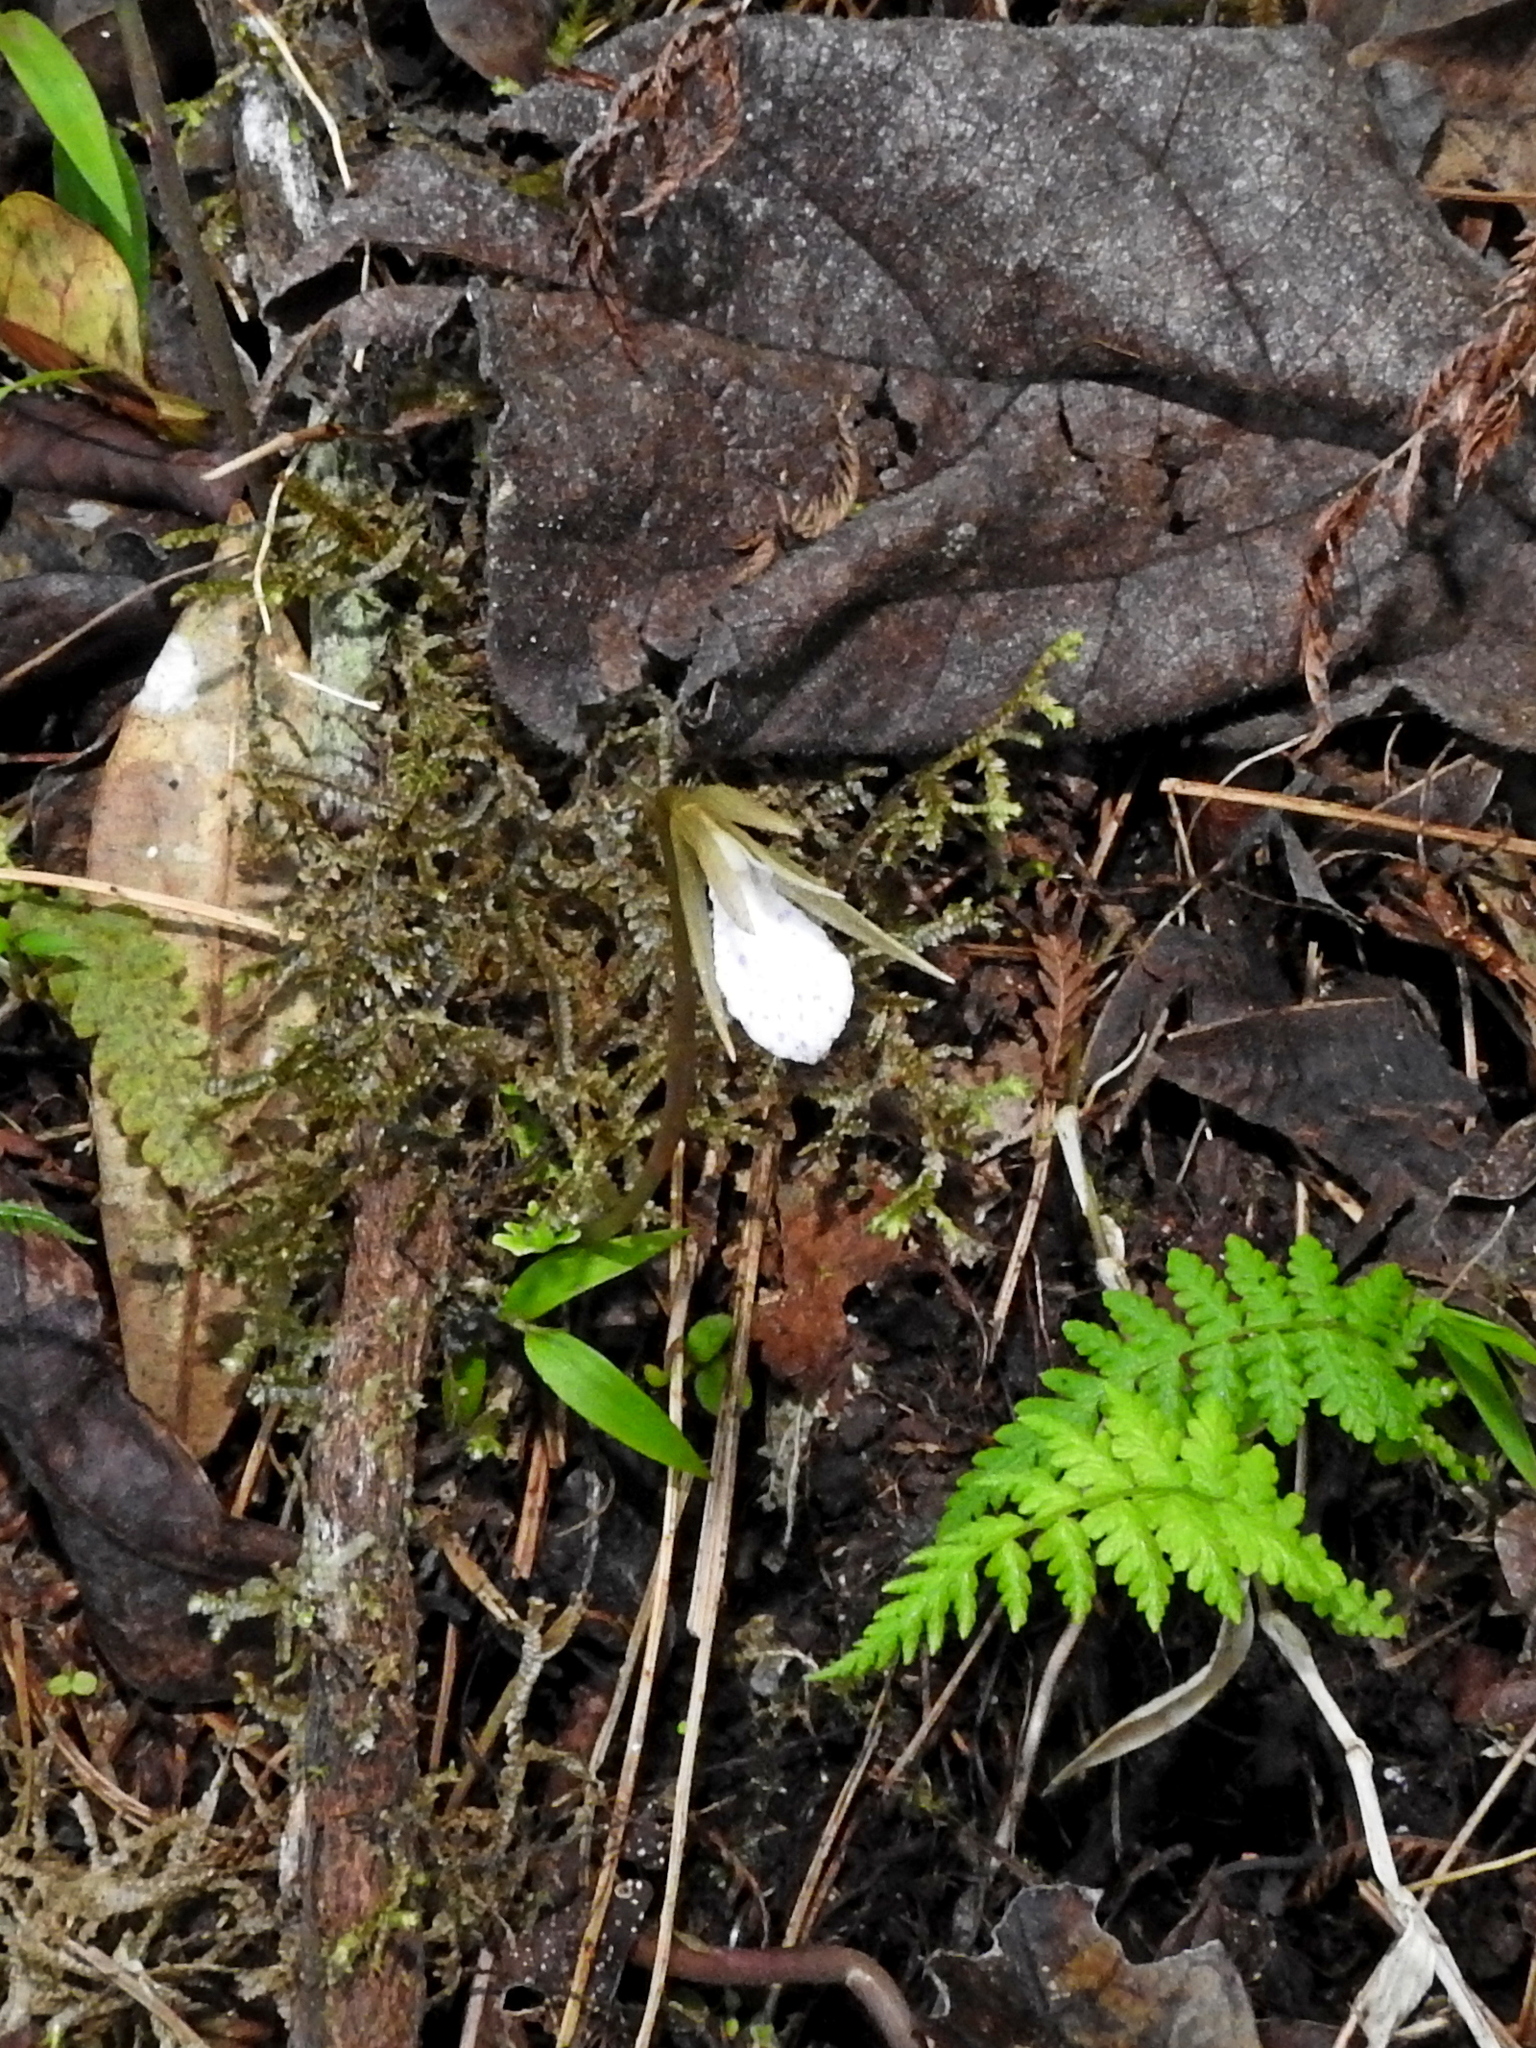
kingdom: Plantae
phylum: Tracheophyta
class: Liliopsida
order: Asparagales
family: Orchidaceae
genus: Nervilia
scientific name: Nervilia taiwaniana
